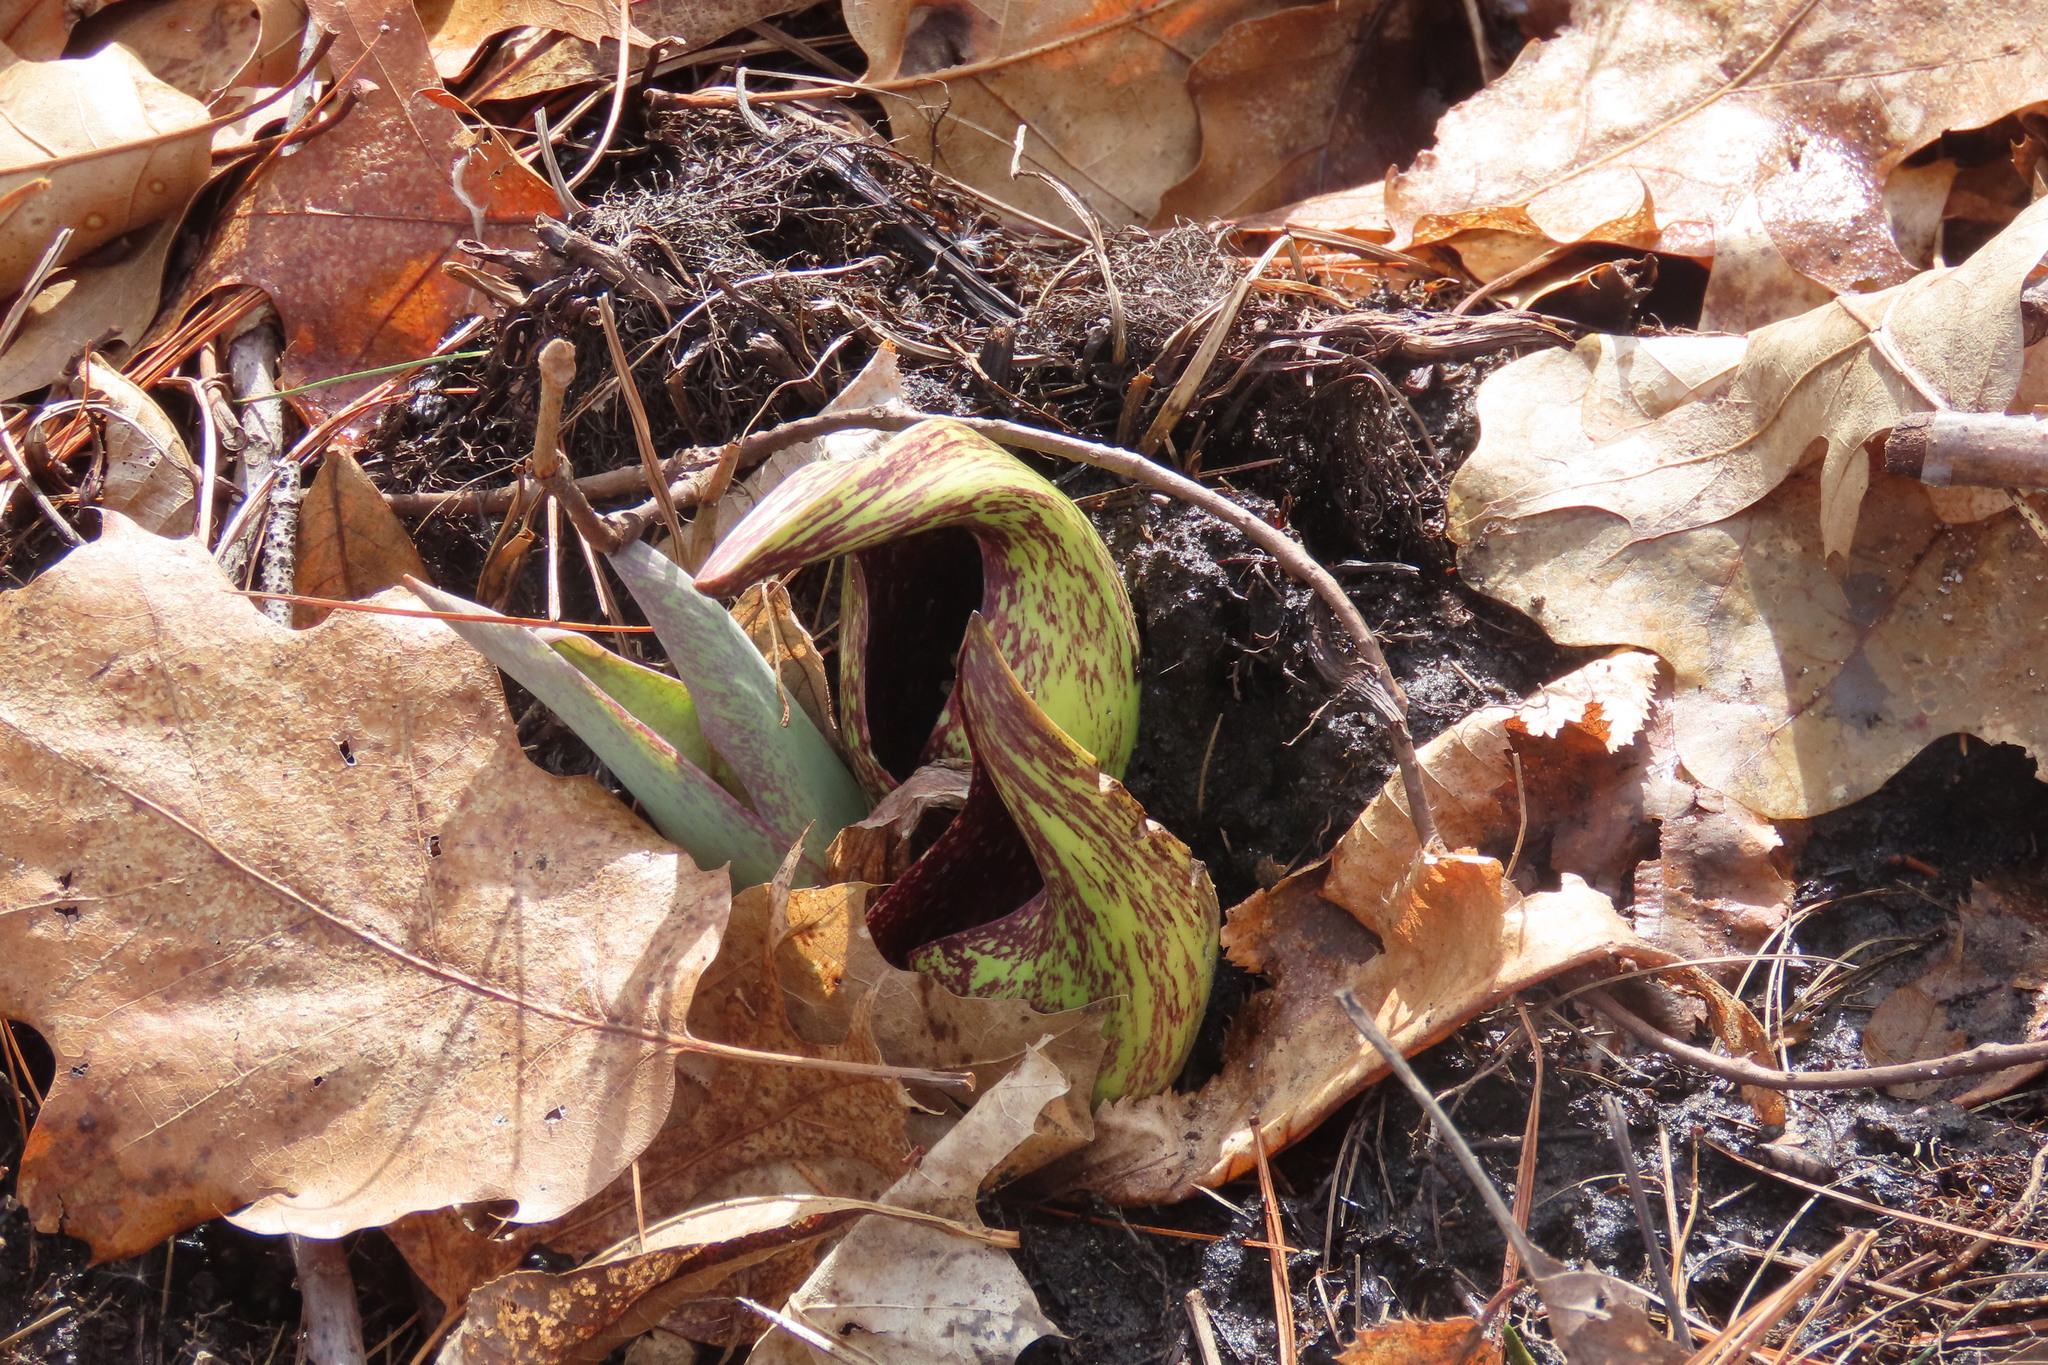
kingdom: Plantae
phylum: Tracheophyta
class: Liliopsida
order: Alismatales
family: Araceae
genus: Symplocarpus
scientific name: Symplocarpus foetidus
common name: Eastern skunk cabbage
